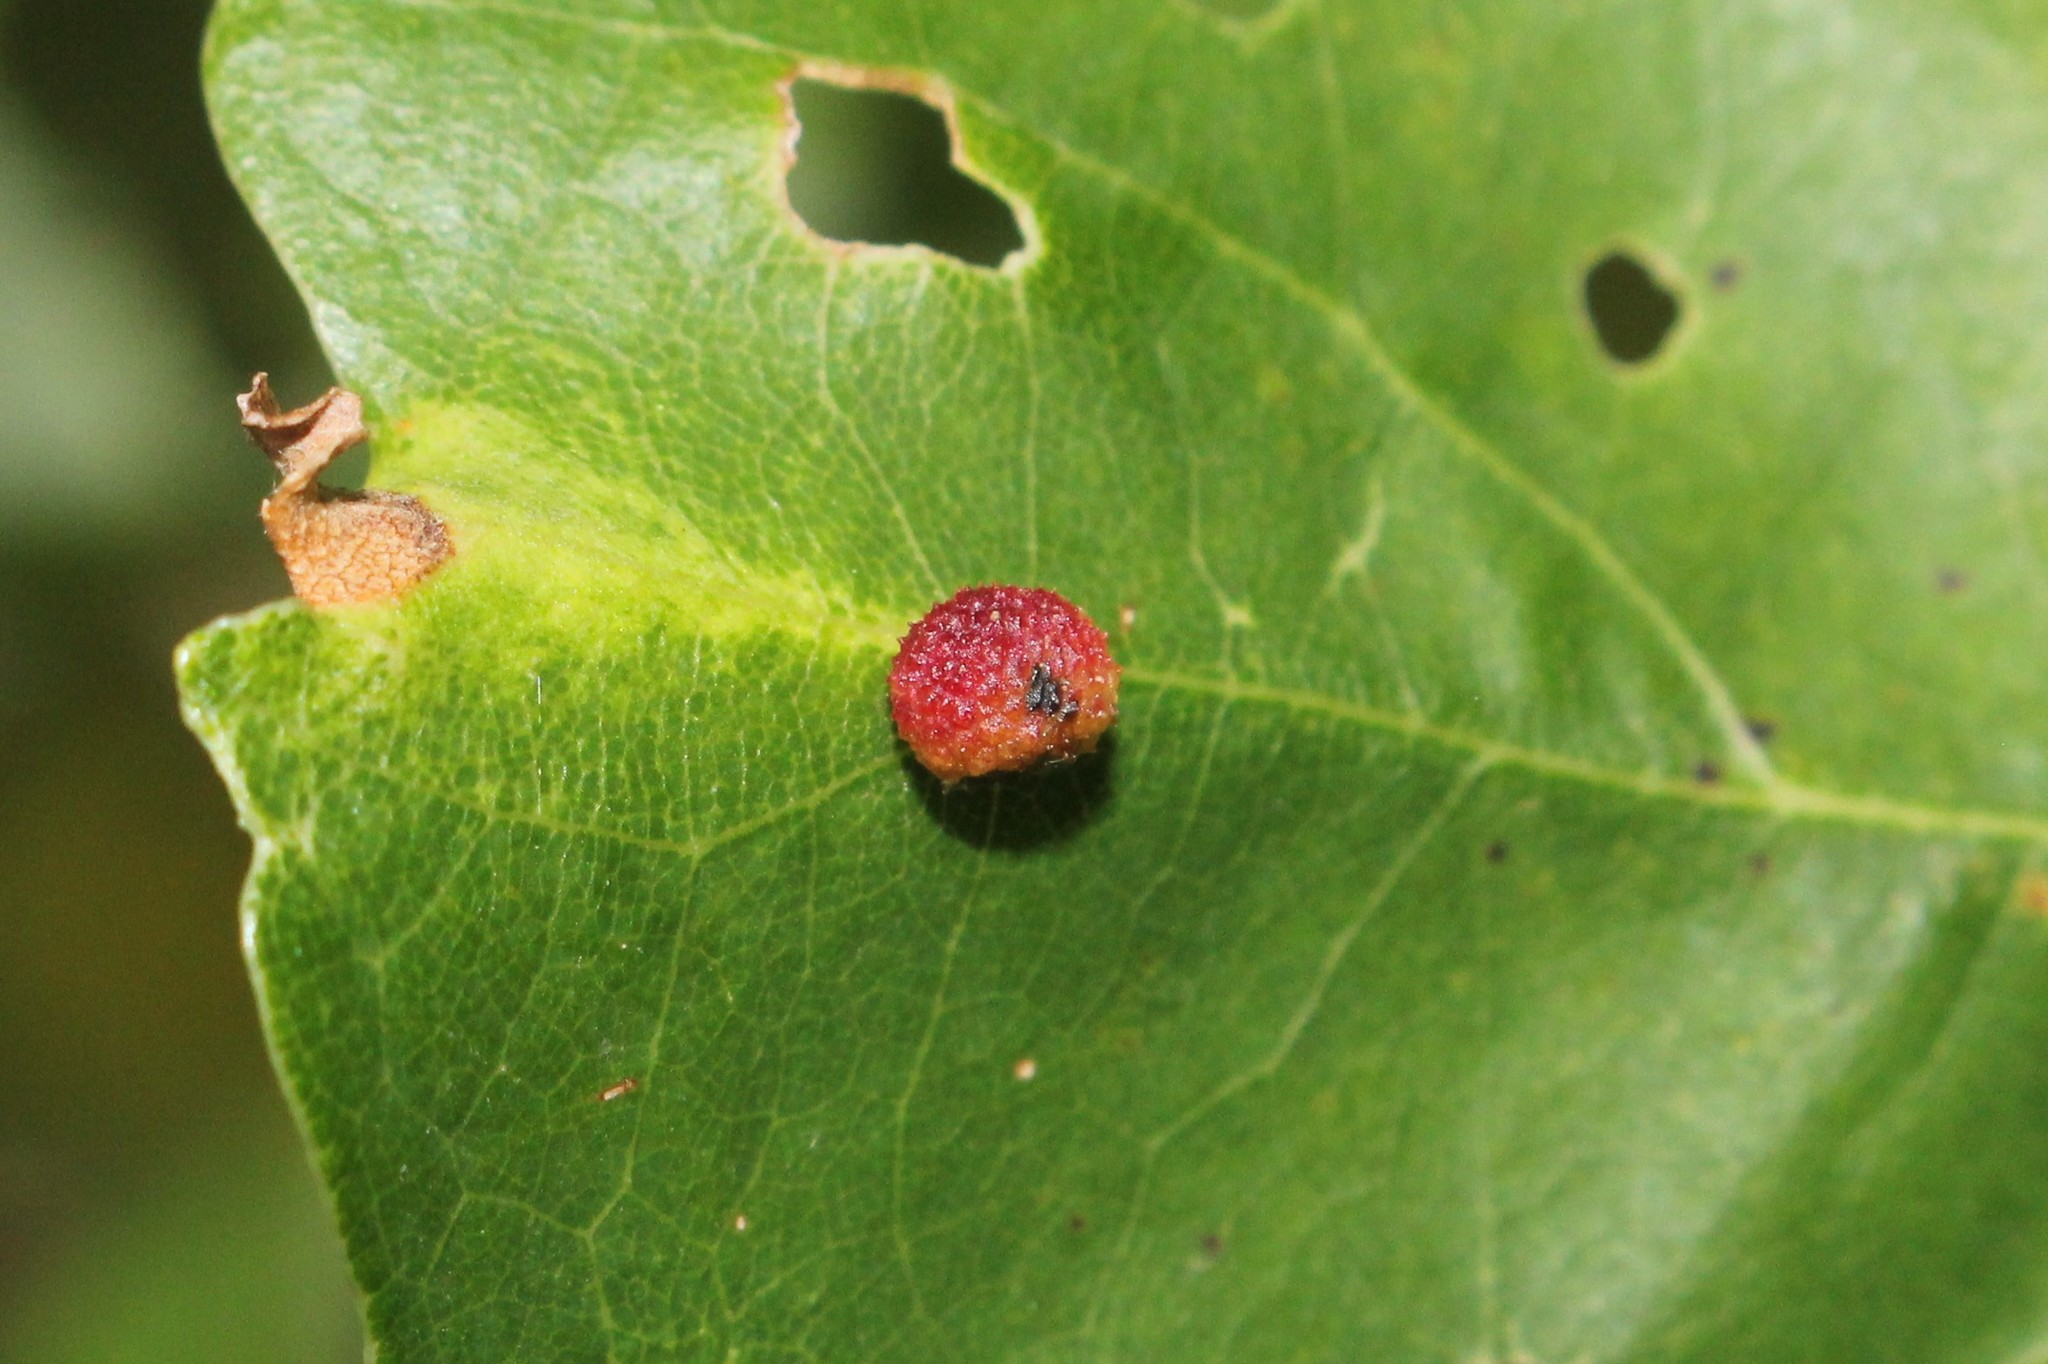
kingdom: Animalia
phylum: Arthropoda
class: Insecta
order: Hymenoptera
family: Cynipidae
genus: Acraspis
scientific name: Acraspis quercushirta
